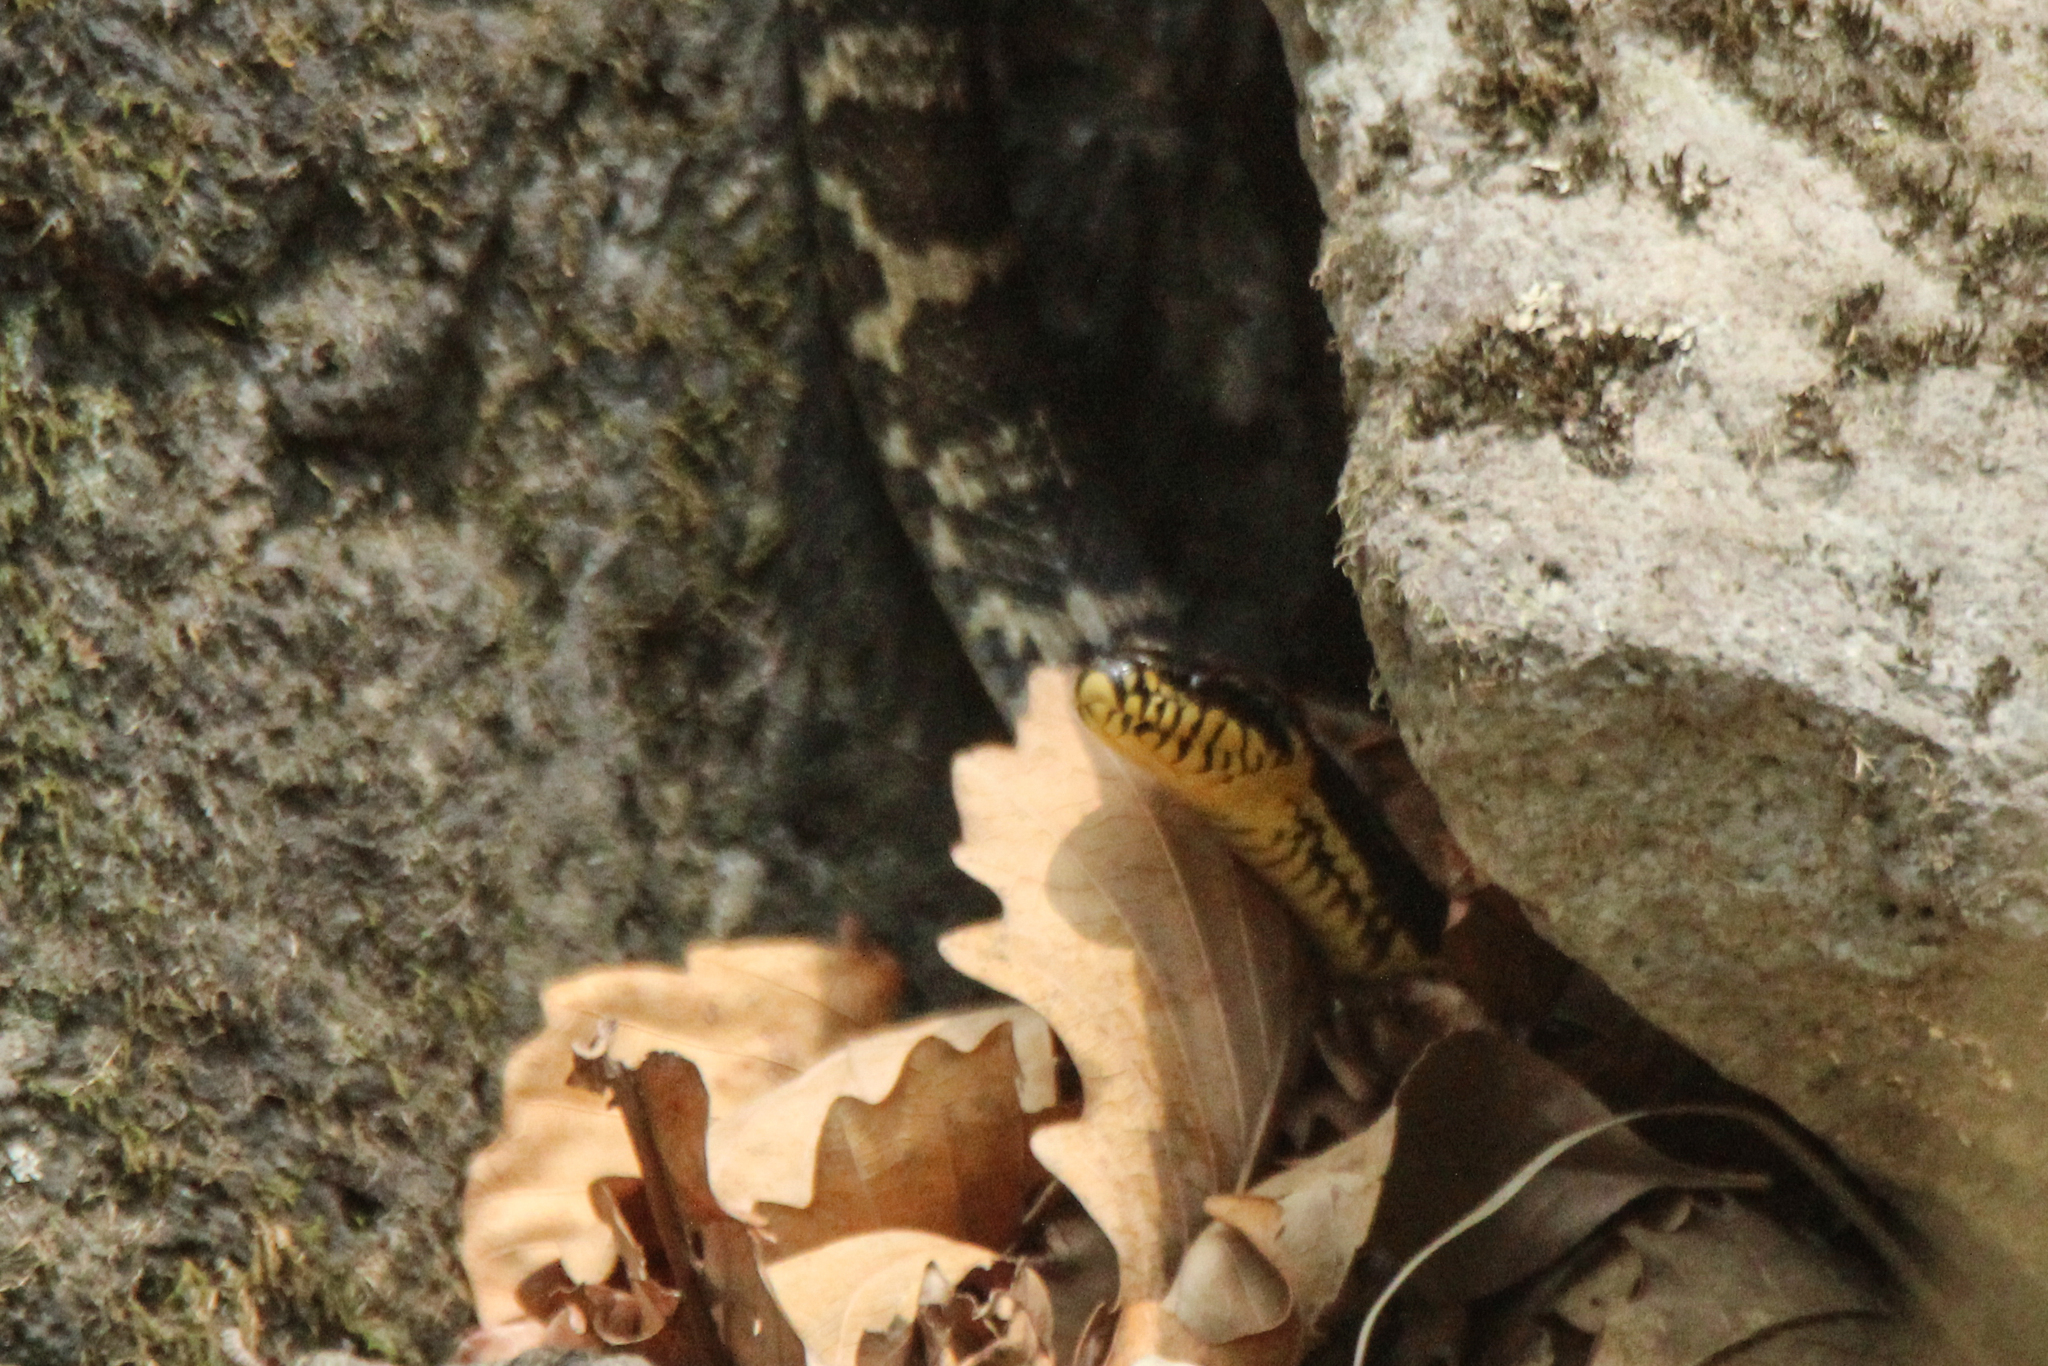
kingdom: Animalia
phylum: Chordata
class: Squamata
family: Colubridae
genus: Elaphe
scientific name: Elaphe schrenckii
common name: Amur rat snake
